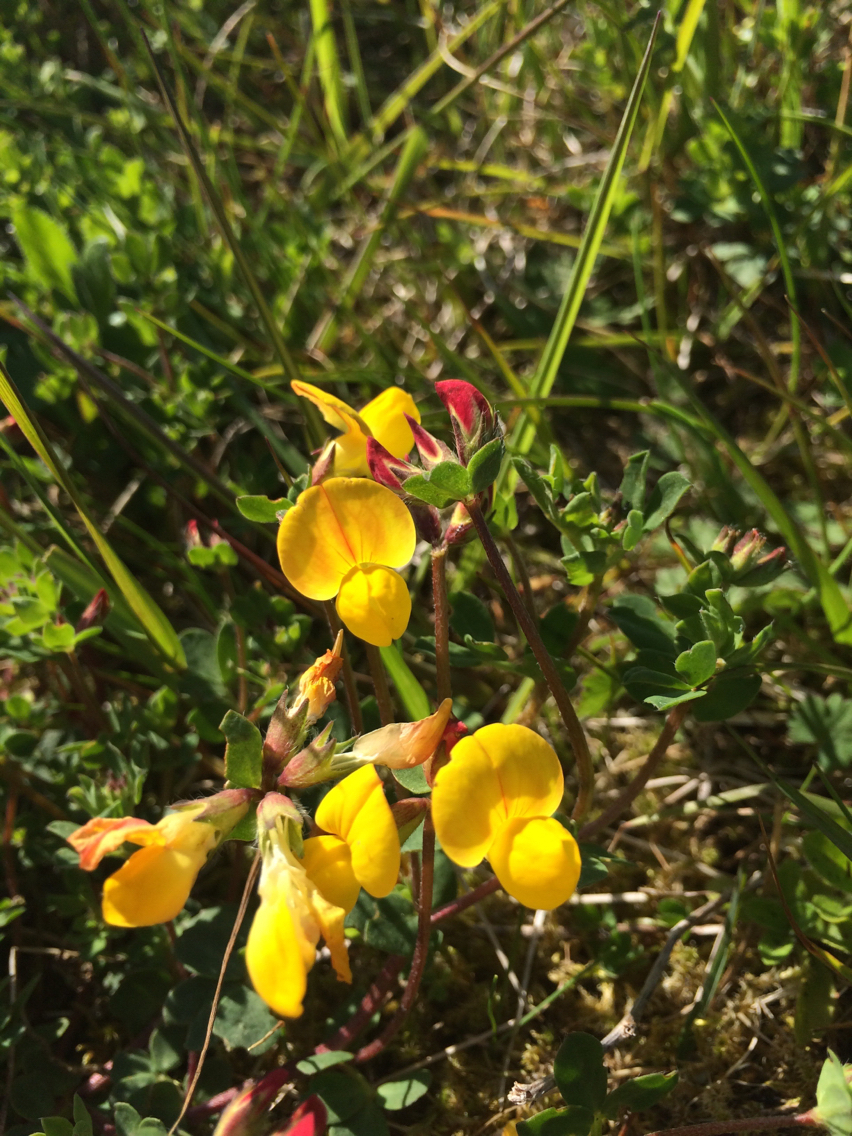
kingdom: Plantae
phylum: Tracheophyta
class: Magnoliopsida
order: Fabales
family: Fabaceae
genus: Lotus
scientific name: Lotus corniculatus
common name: Common bird's-foot-trefoil
